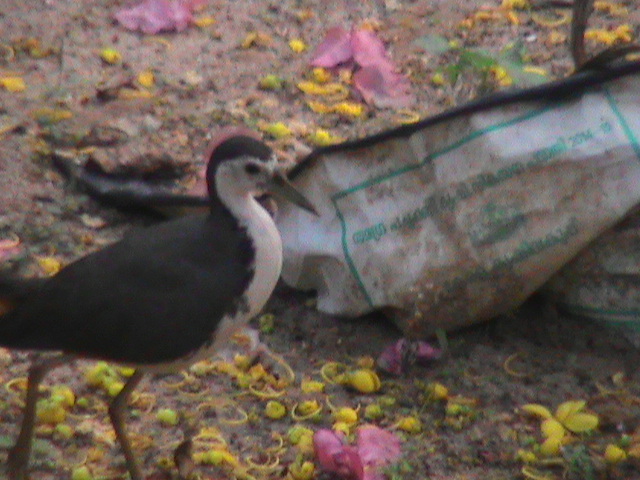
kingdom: Animalia
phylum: Chordata
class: Aves
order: Gruiformes
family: Rallidae
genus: Amaurornis
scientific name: Amaurornis phoenicurus
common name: White-breasted waterhen
